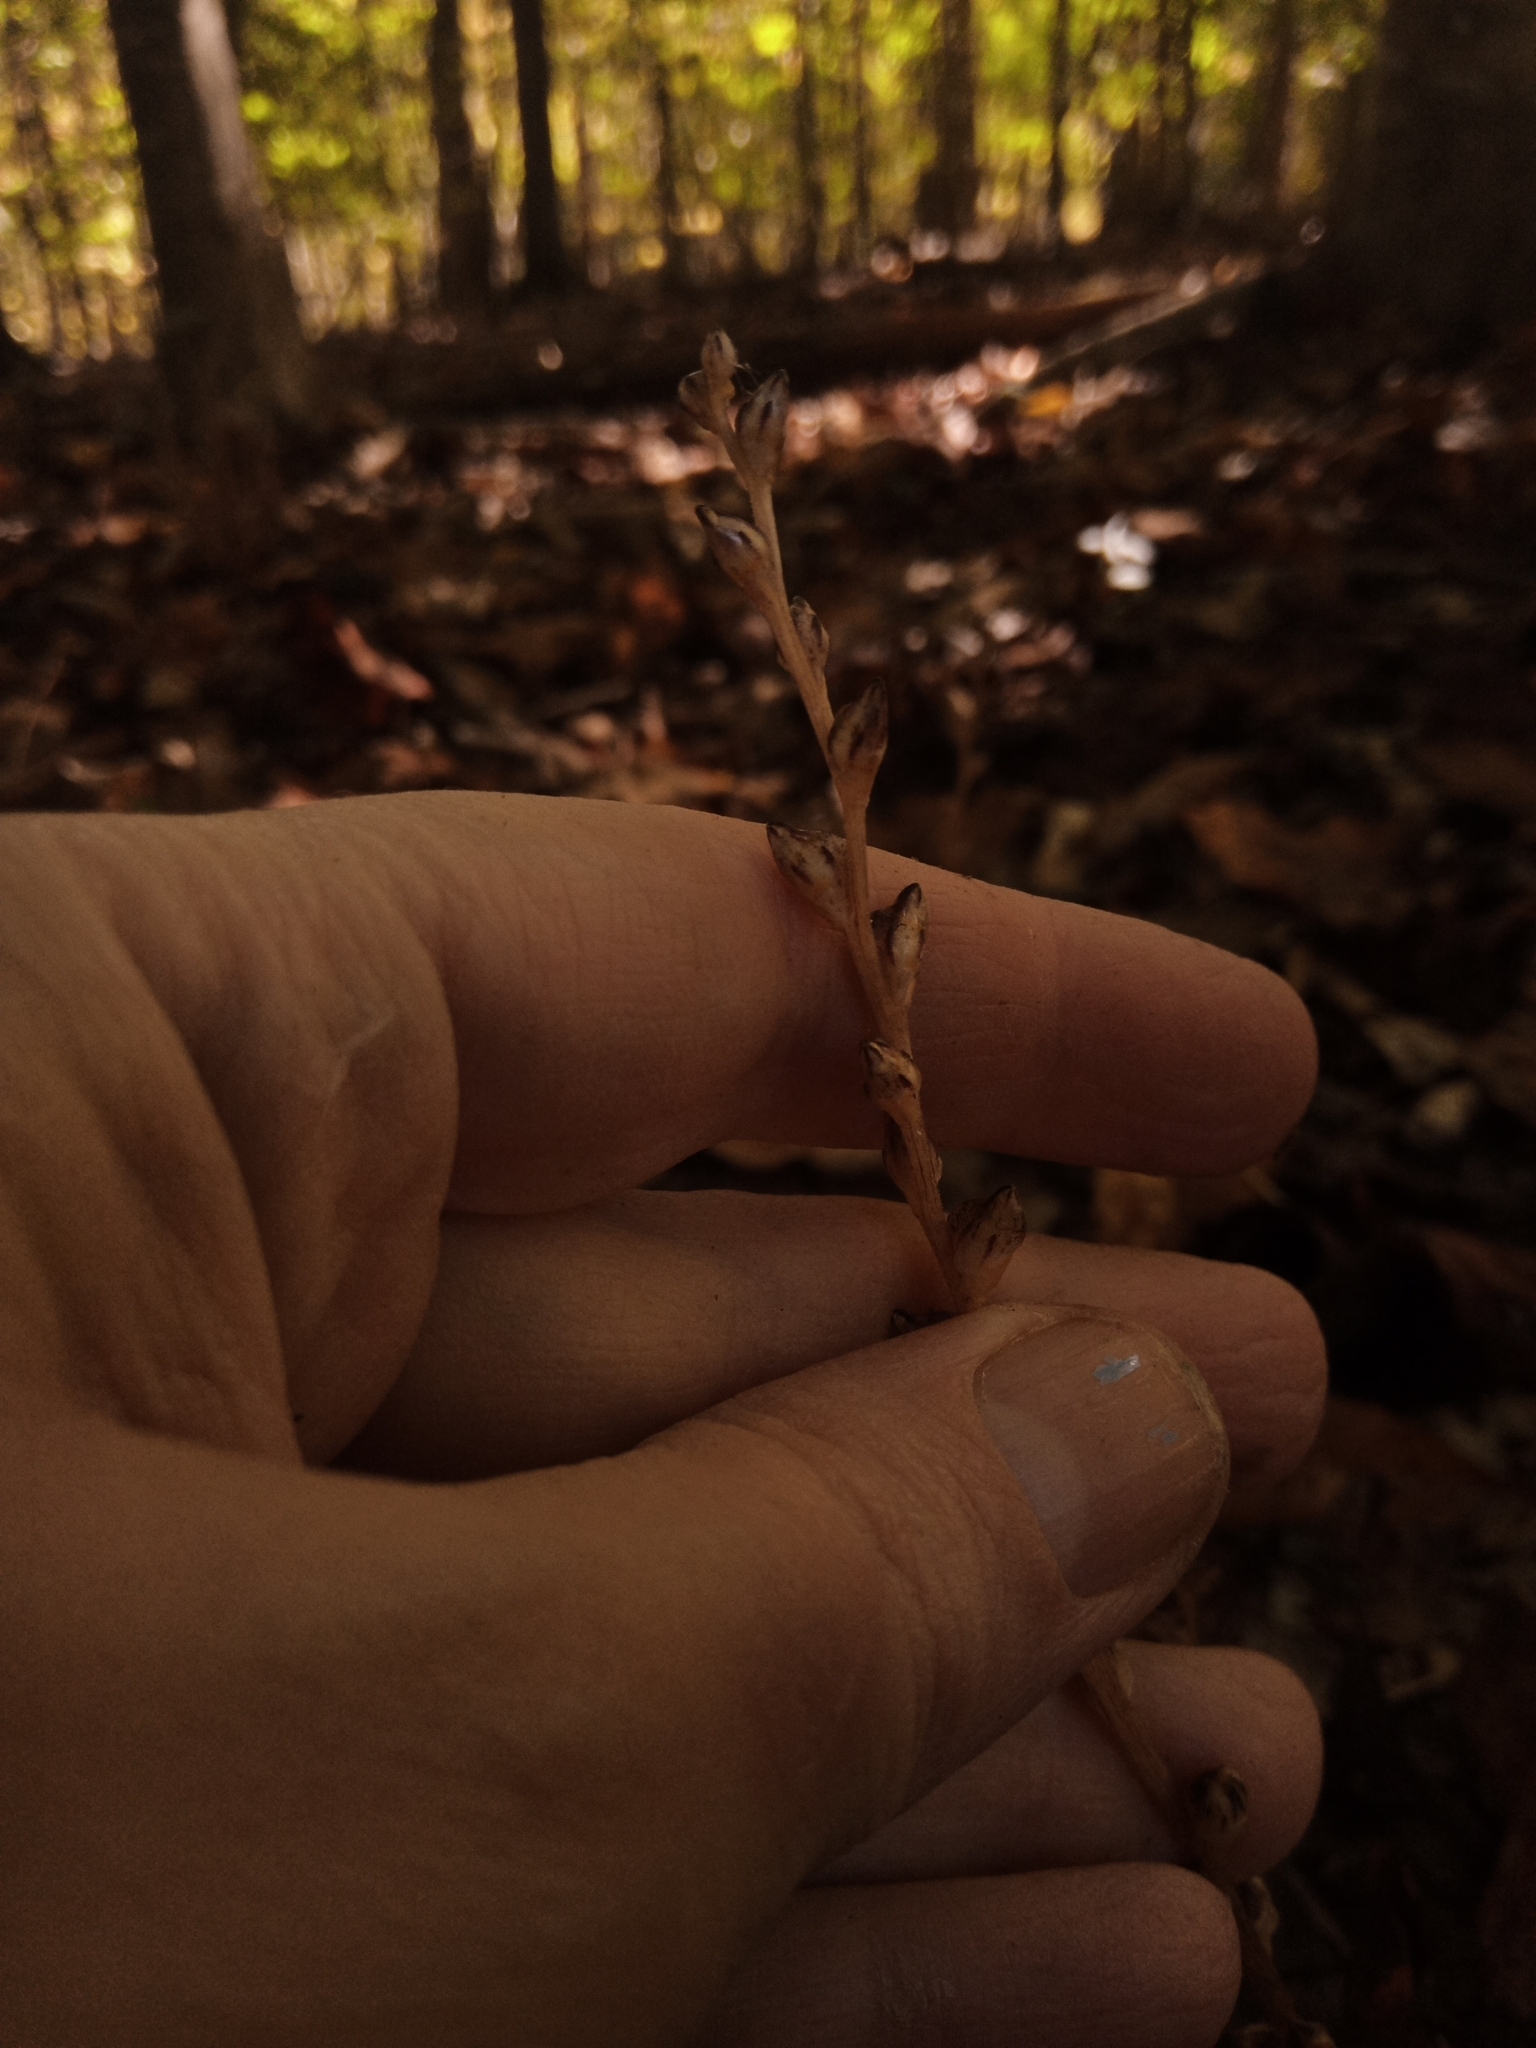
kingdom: Plantae
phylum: Tracheophyta
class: Magnoliopsida
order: Lamiales
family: Orobanchaceae
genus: Epifagus
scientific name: Epifagus virginiana
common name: Beechdrops
